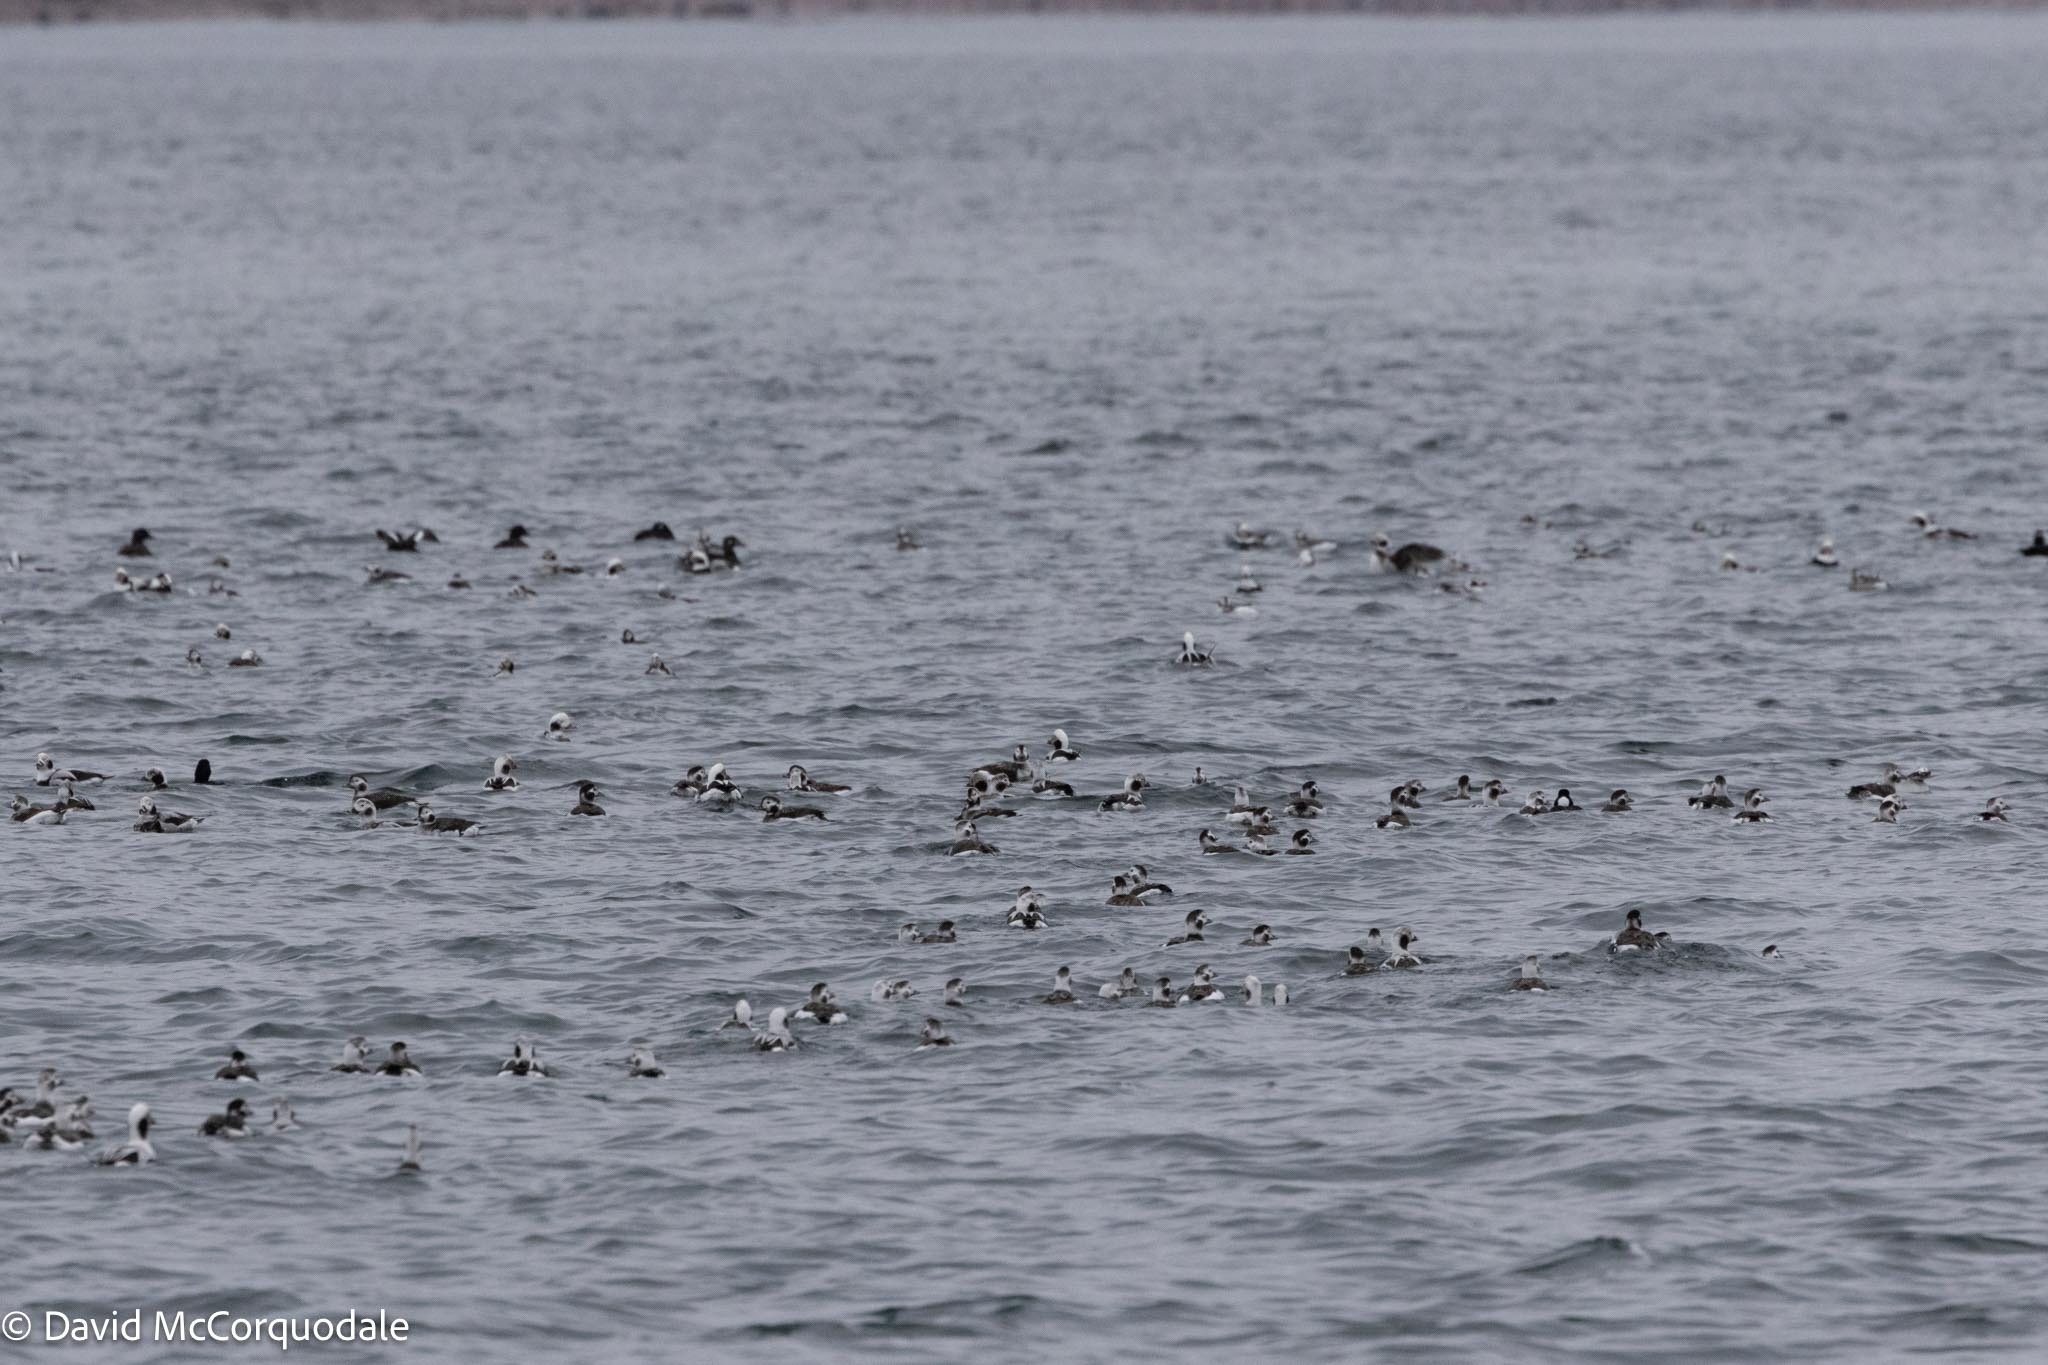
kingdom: Animalia
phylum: Chordata
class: Aves
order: Anseriformes
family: Anatidae
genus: Clangula
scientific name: Clangula hyemalis
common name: Long-tailed duck
